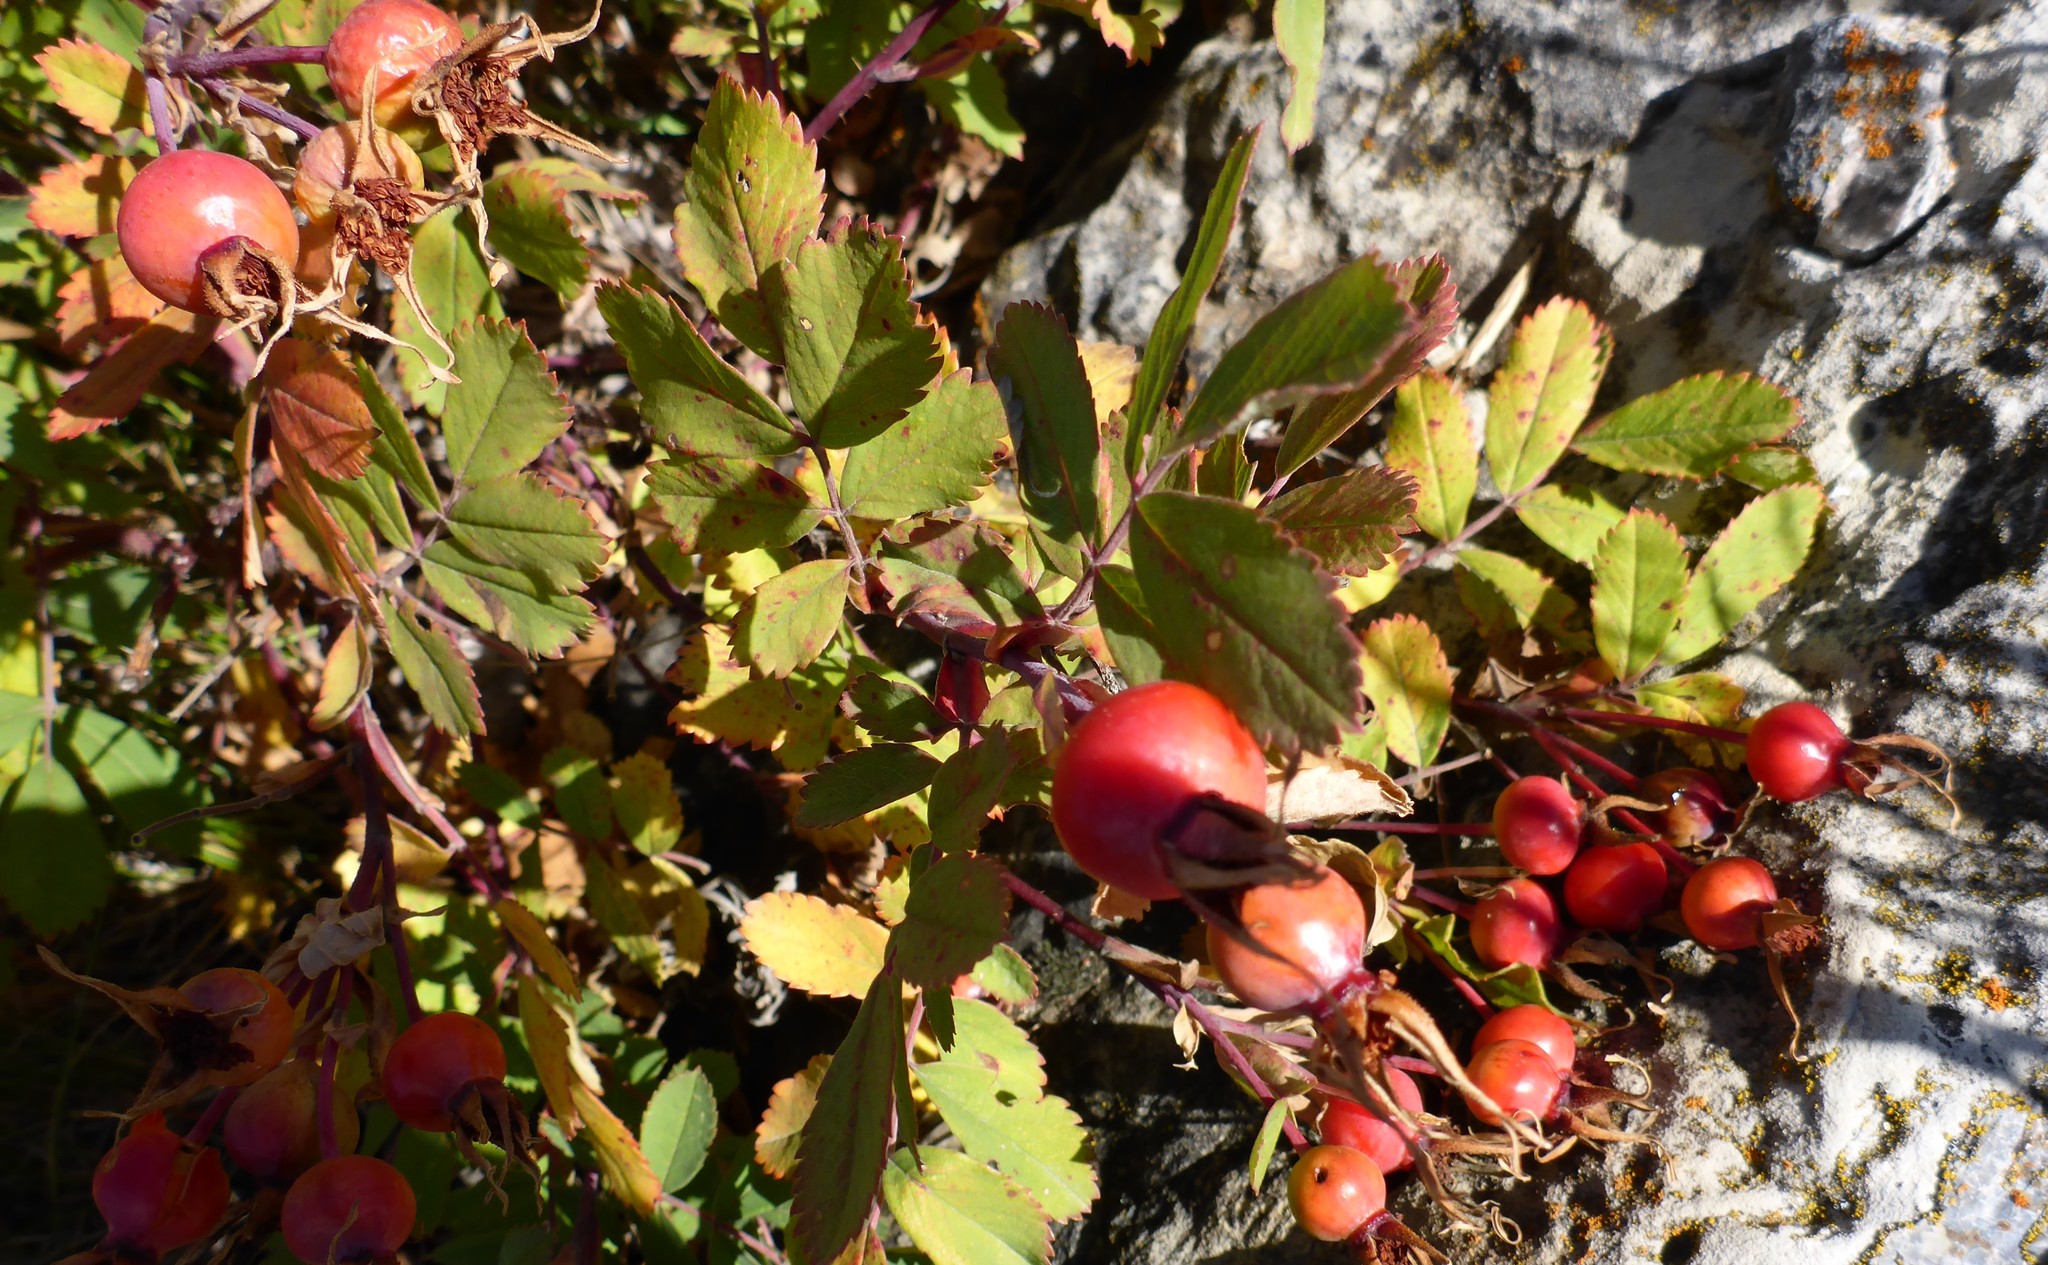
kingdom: Plantae
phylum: Tracheophyta
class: Magnoliopsida
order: Rosales
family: Rosaceae
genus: Rosa
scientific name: Rosa arkansana
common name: Prairie rose
